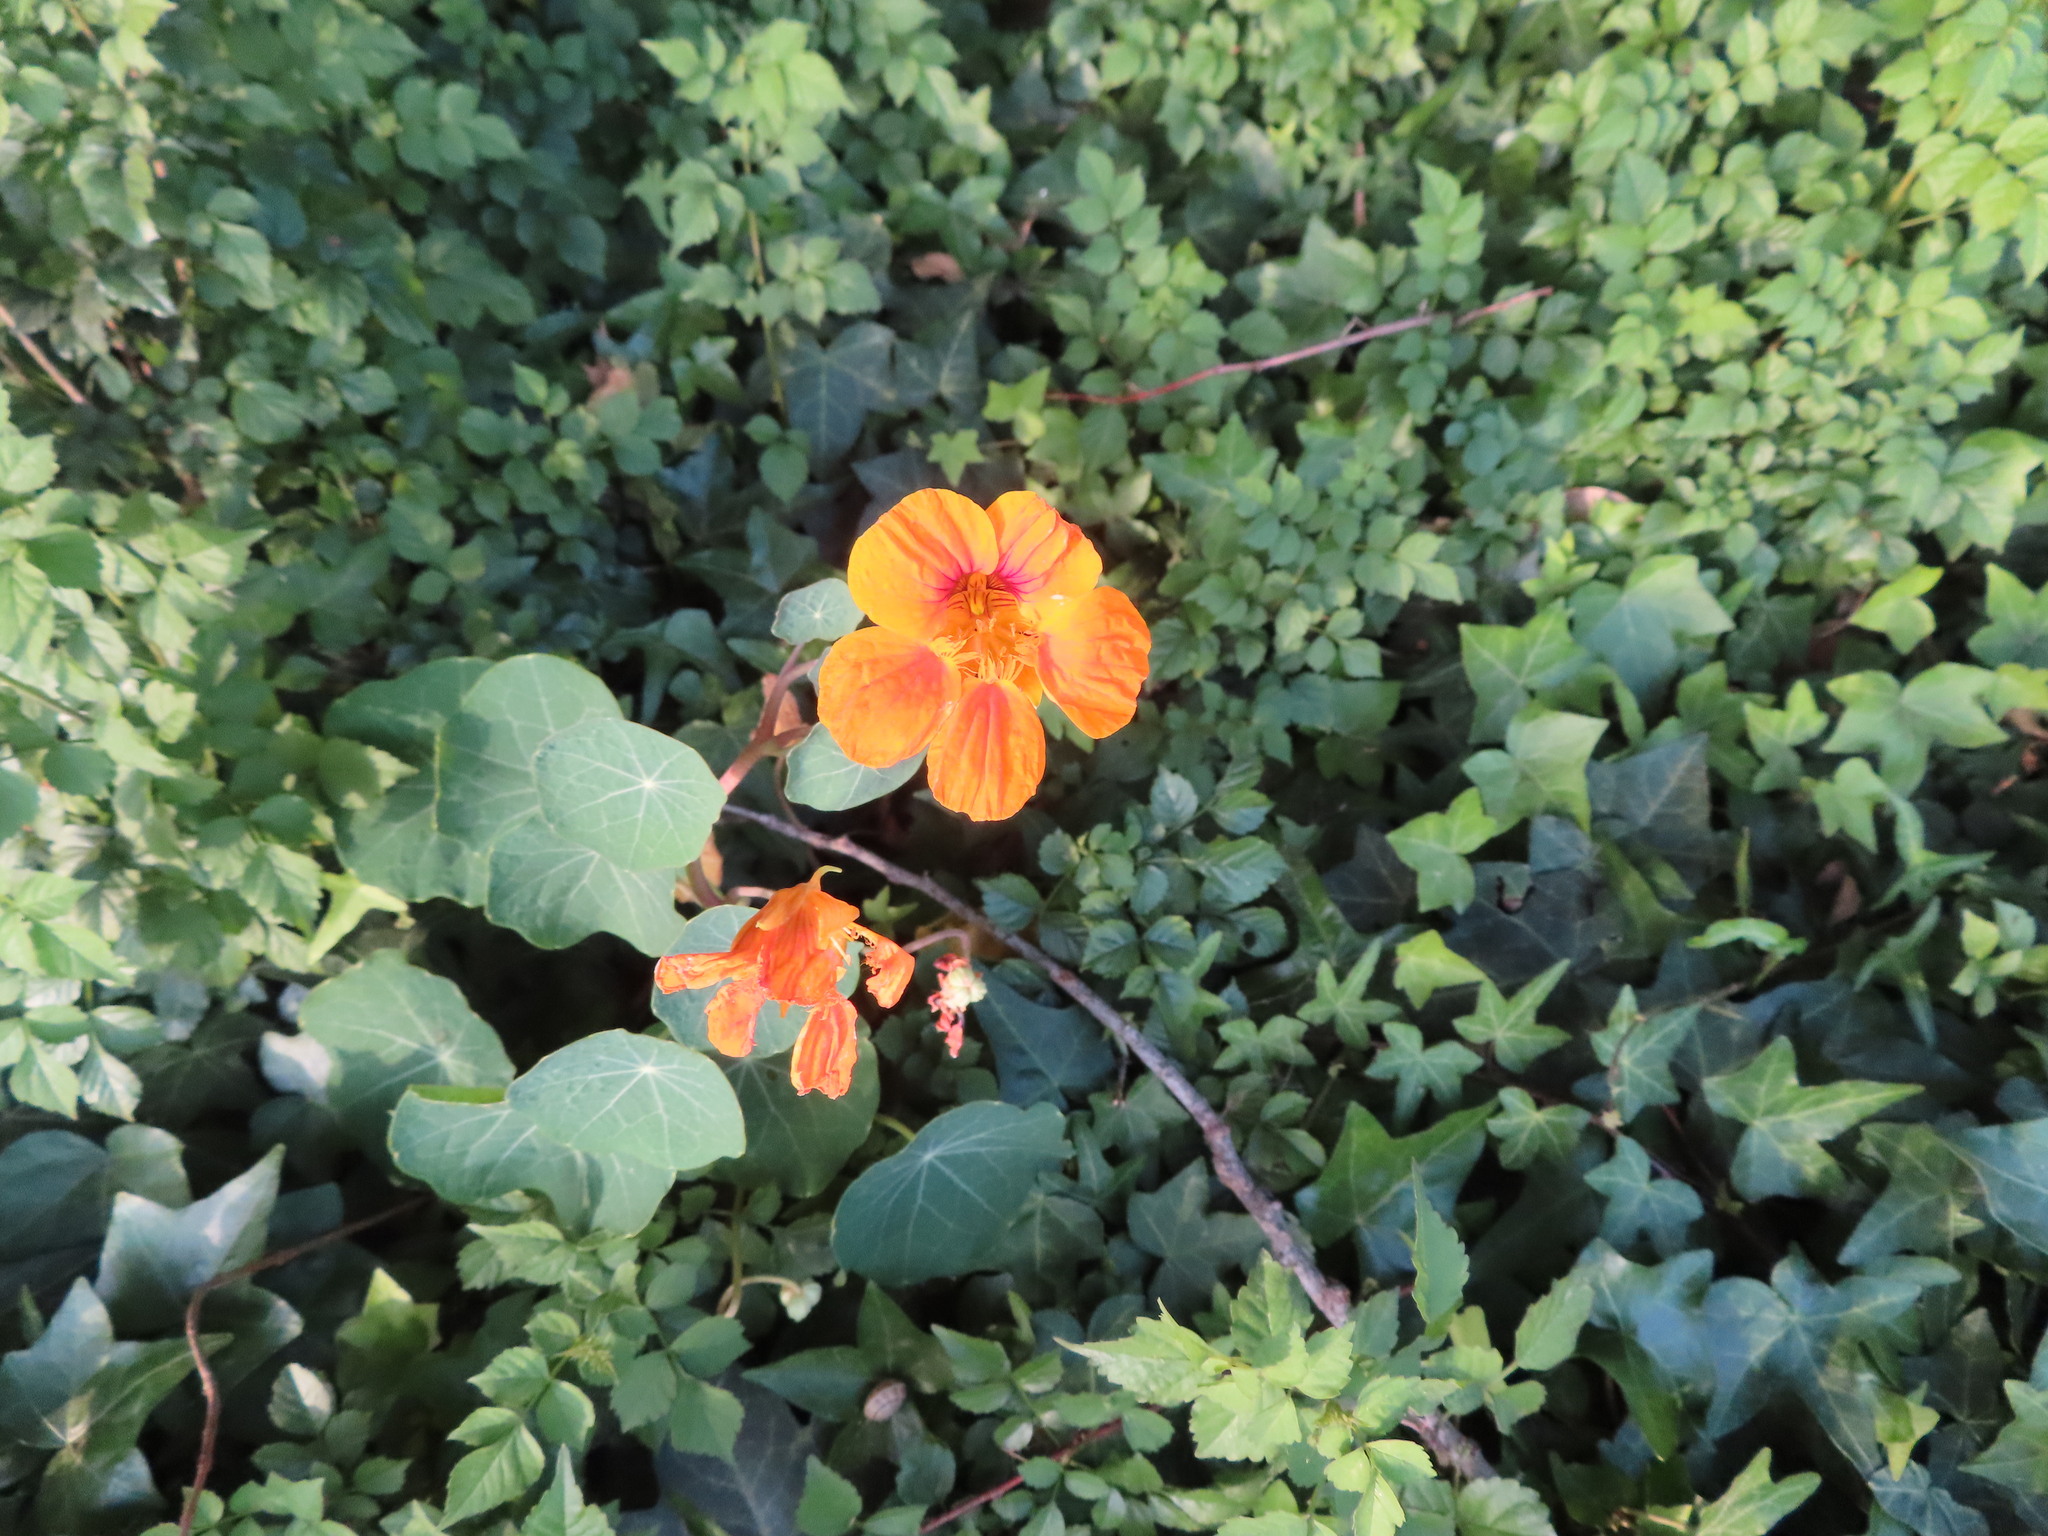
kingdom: Plantae
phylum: Tracheophyta
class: Magnoliopsida
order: Brassicales
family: Tropaeolaceae
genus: Tropaeolum
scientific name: Tropaeolum majus
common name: Nasturtium
